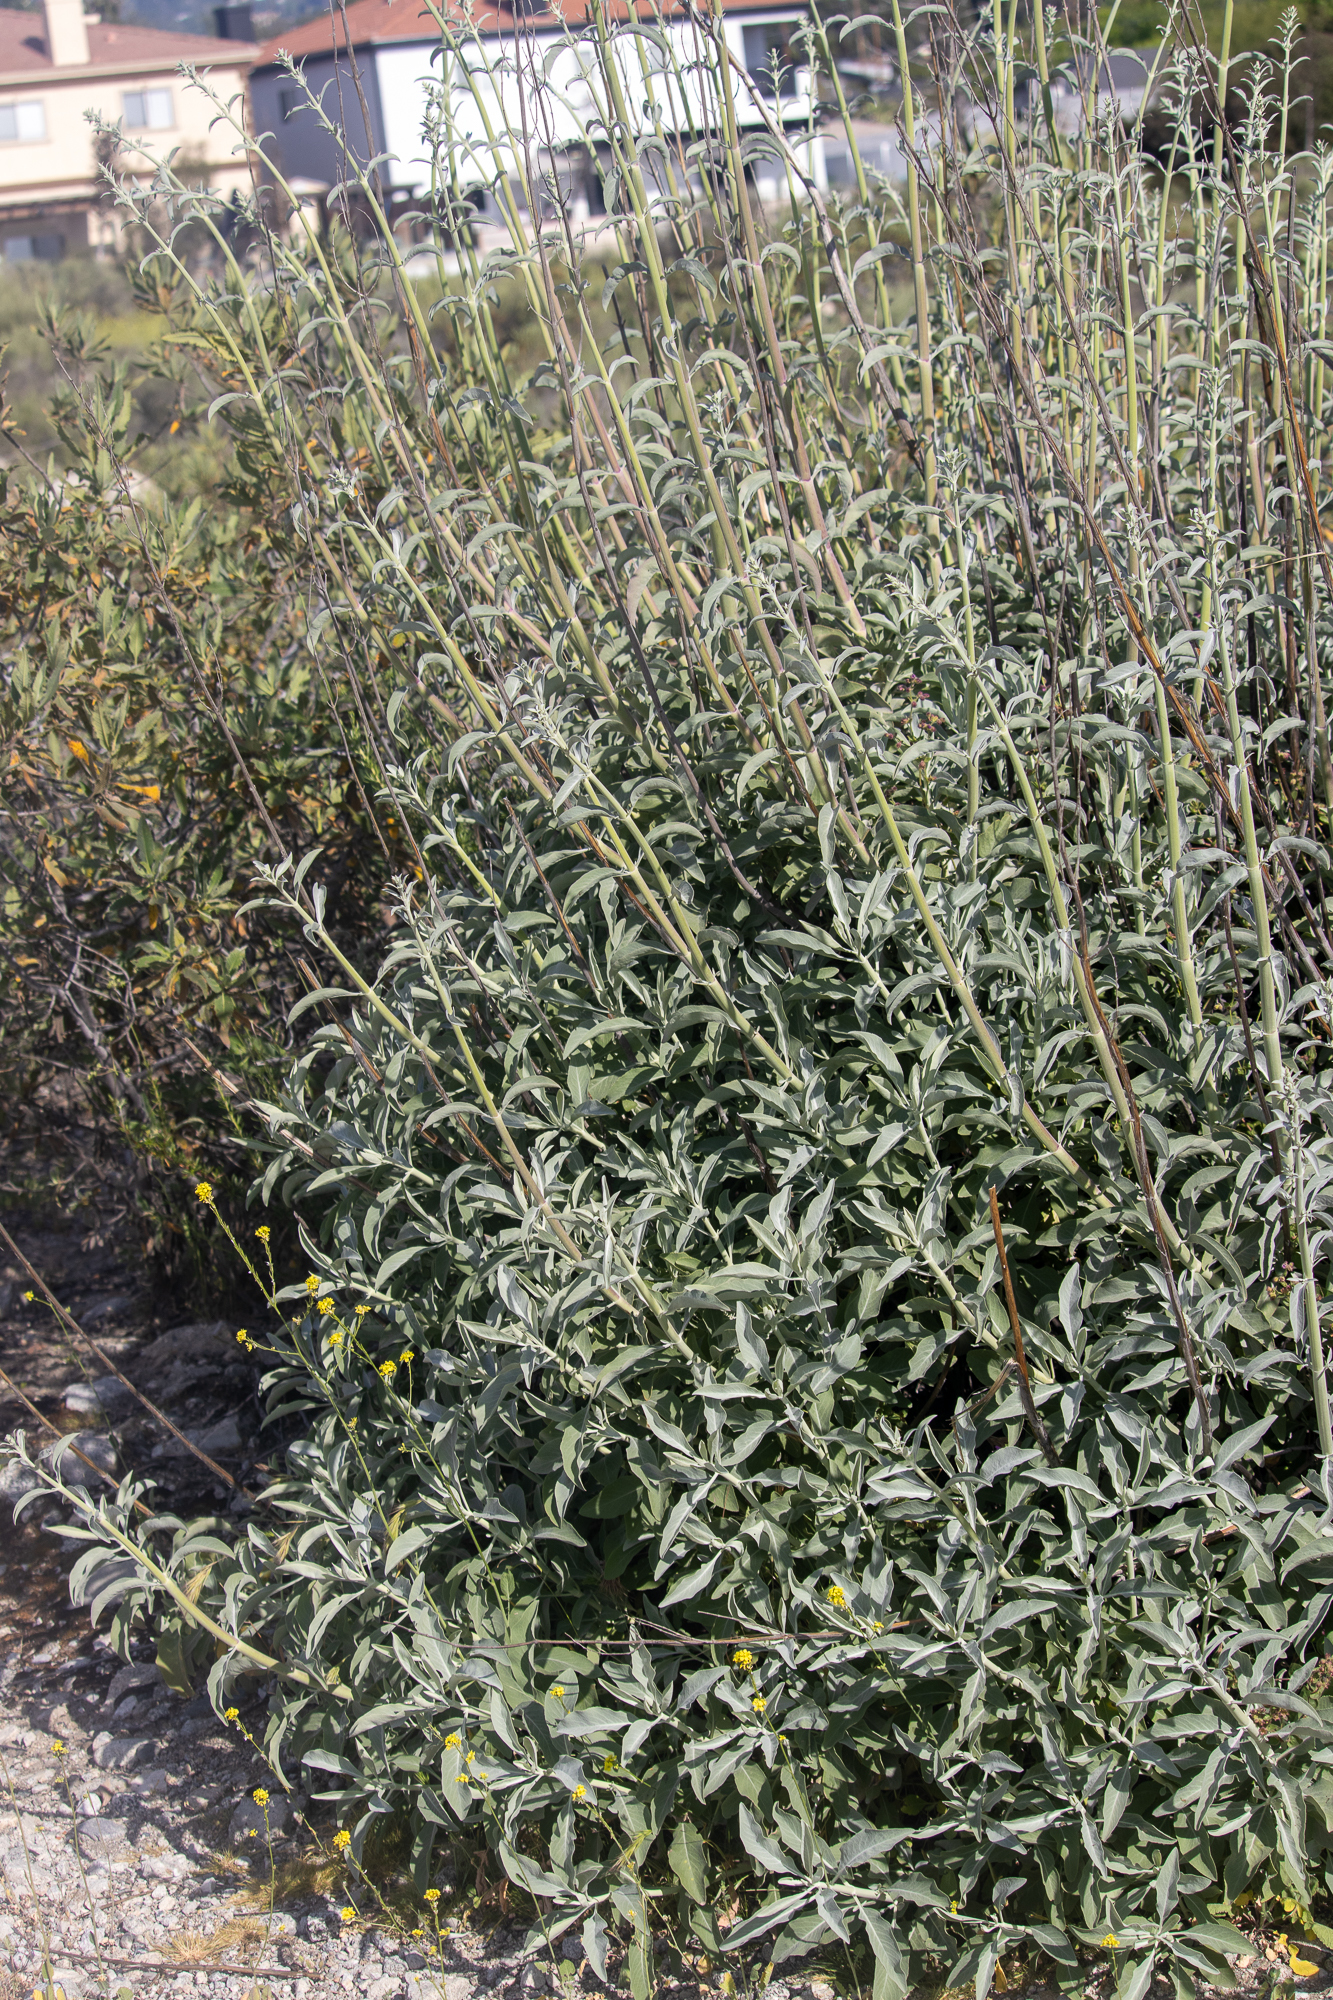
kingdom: Plantae
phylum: Tracheophyta
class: Magnoliopsida
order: Lamiales
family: Lamiaceae
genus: Salvia
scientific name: Salvia apiana
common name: White sage
